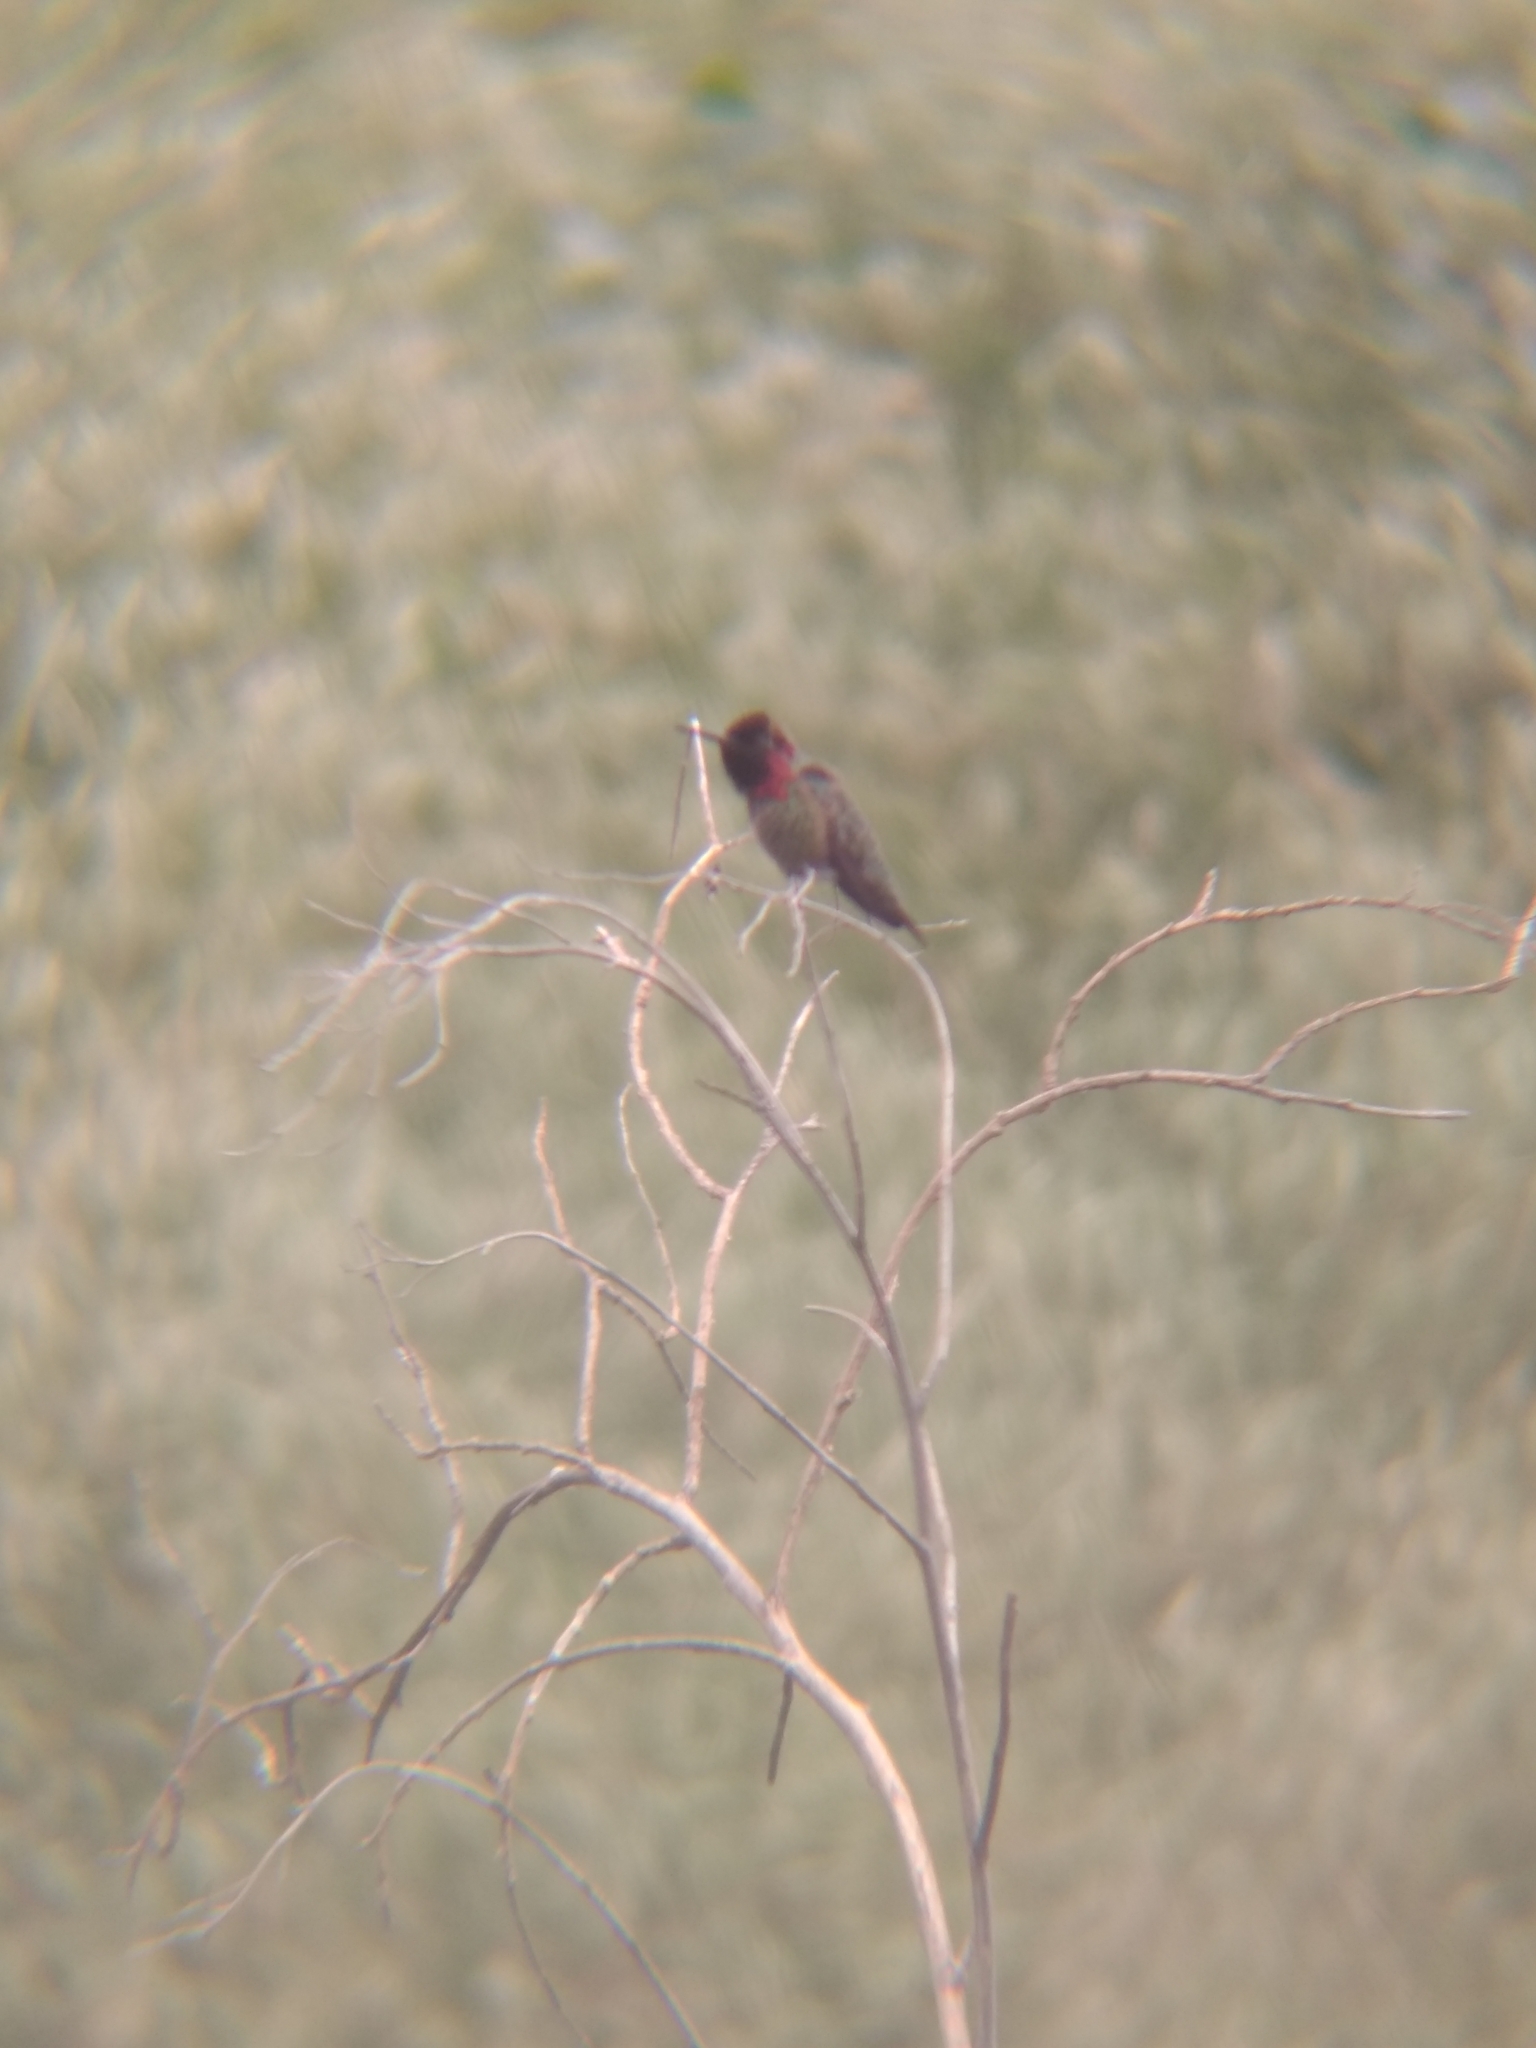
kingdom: Animalia
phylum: Chordata
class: Aves
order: Apodiformes
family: Trochilidae
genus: Calypte
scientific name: Calypte anna
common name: Anna's hummingbird
